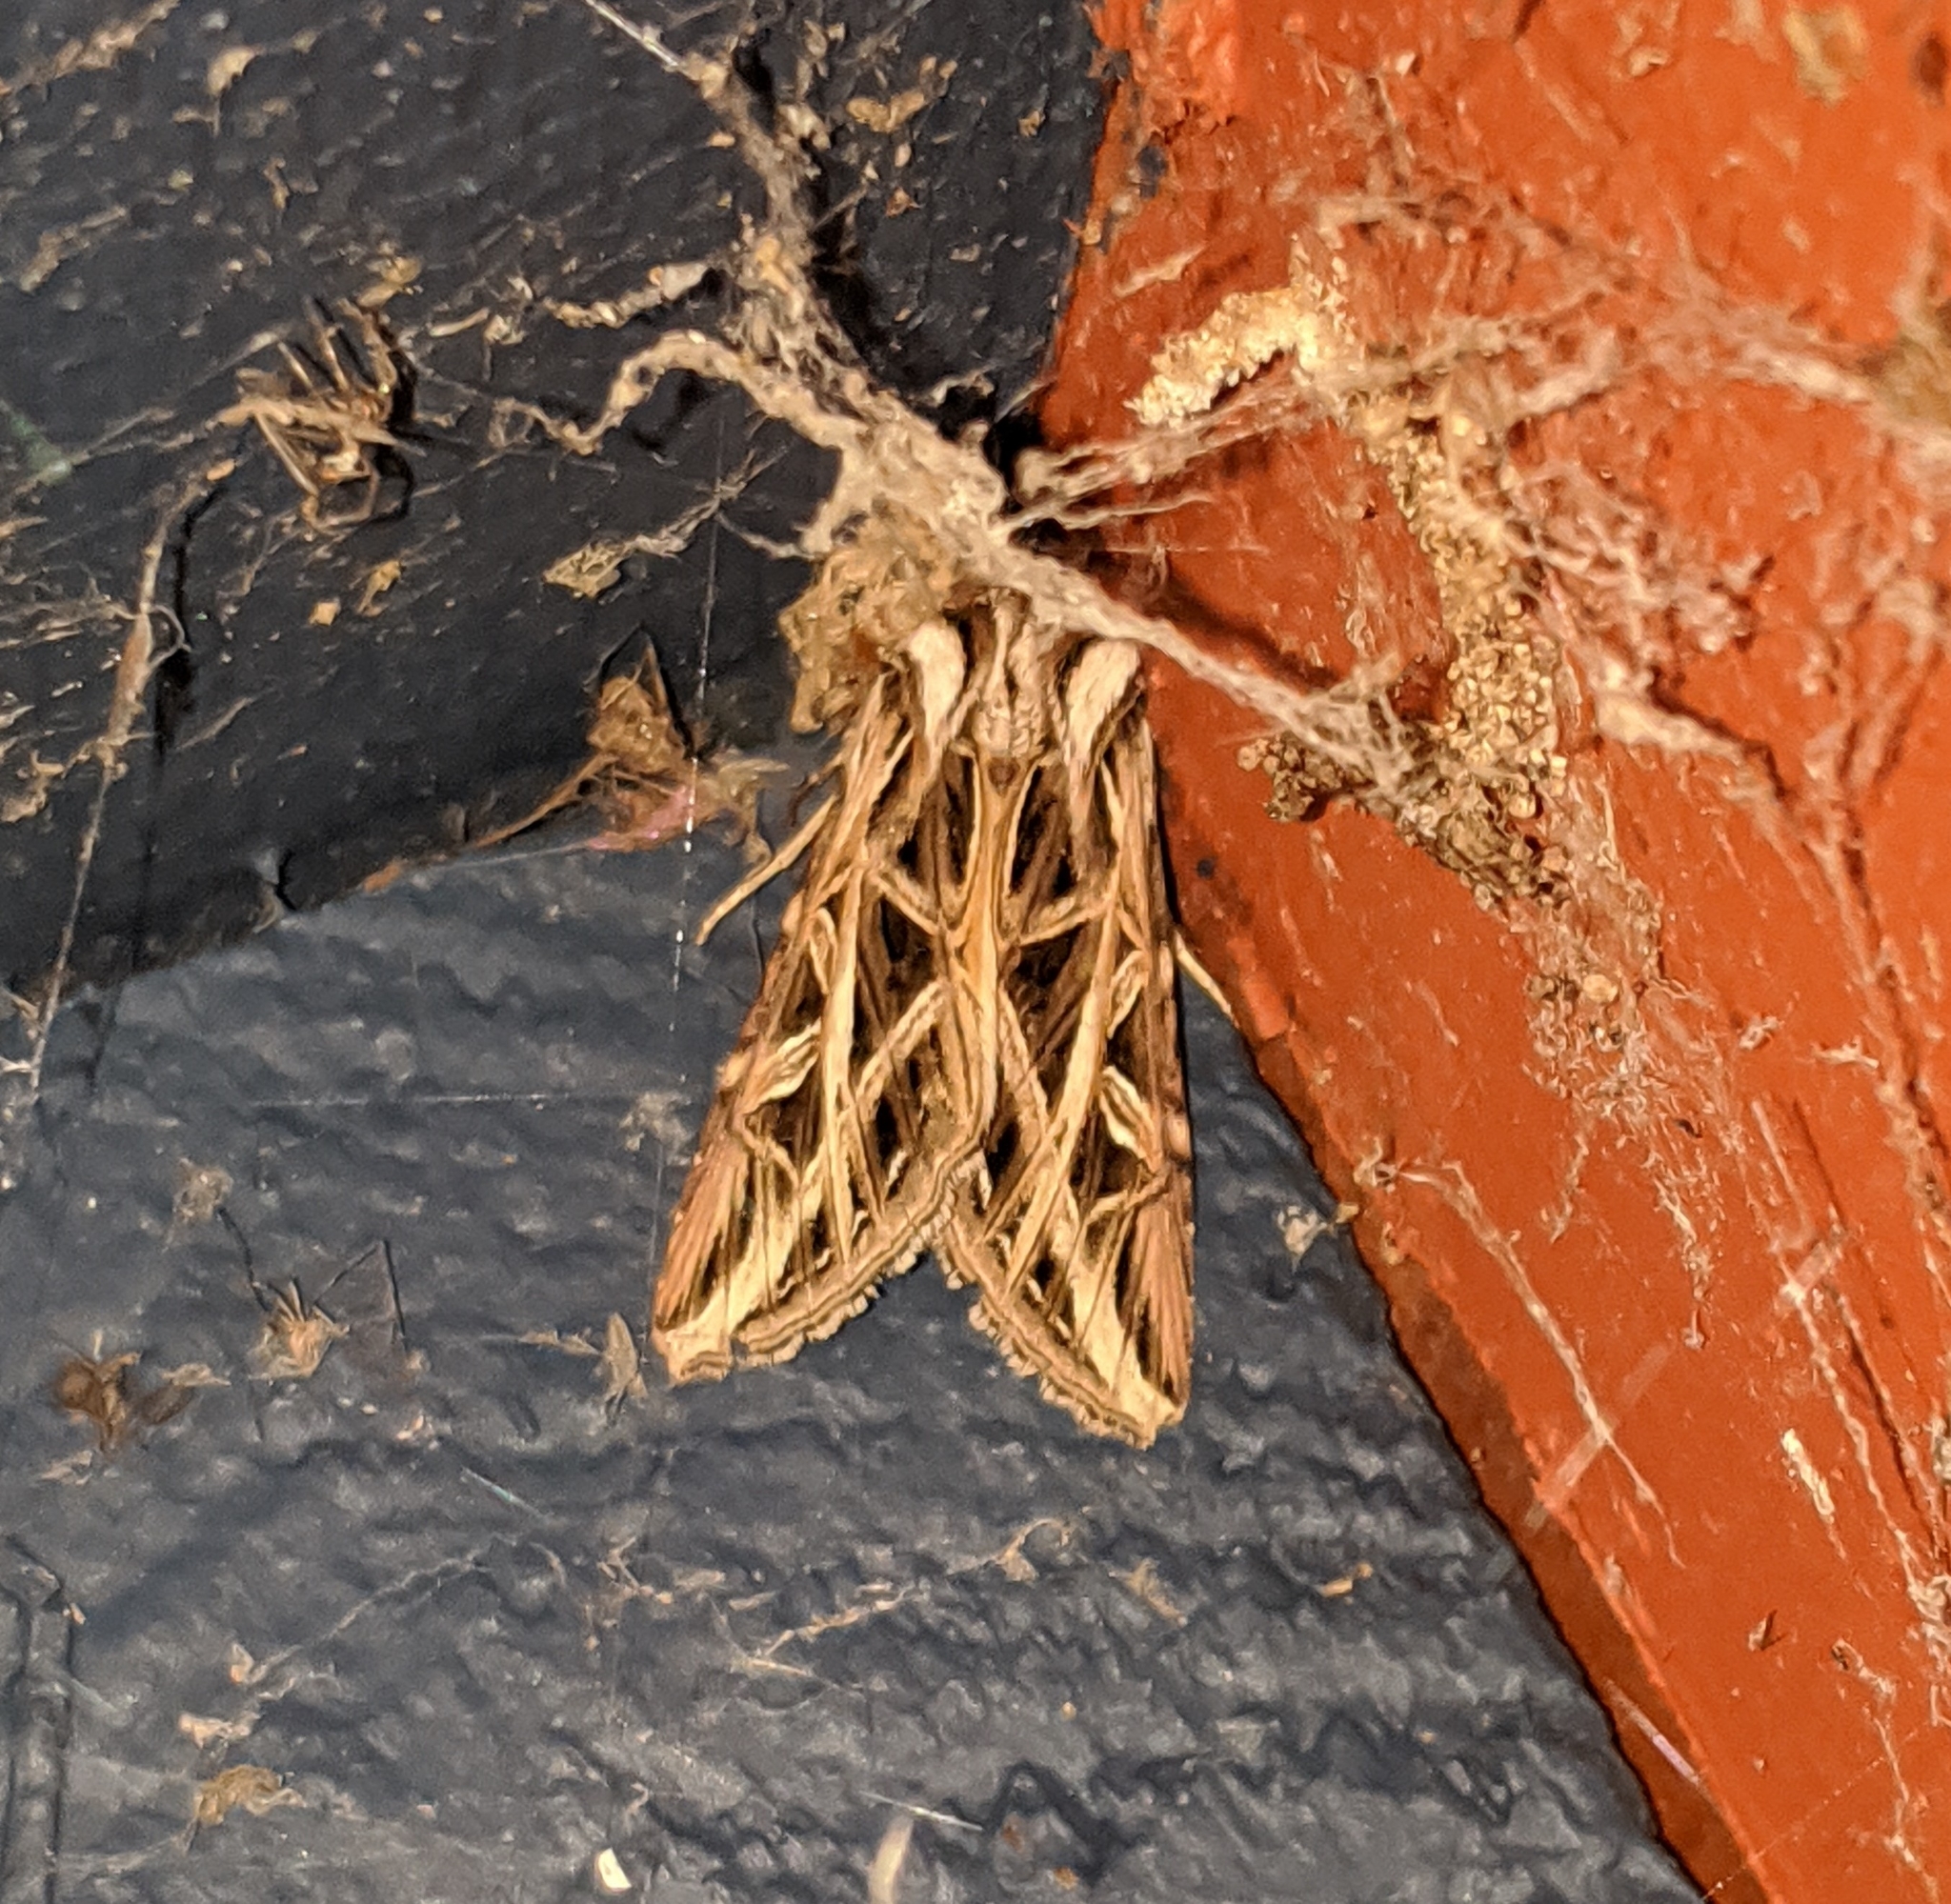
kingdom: Animalia
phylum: Arthropoda
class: Insecta
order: Lepidoptera
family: Noctuidae
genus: Dargida
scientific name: Dargida procinctus
